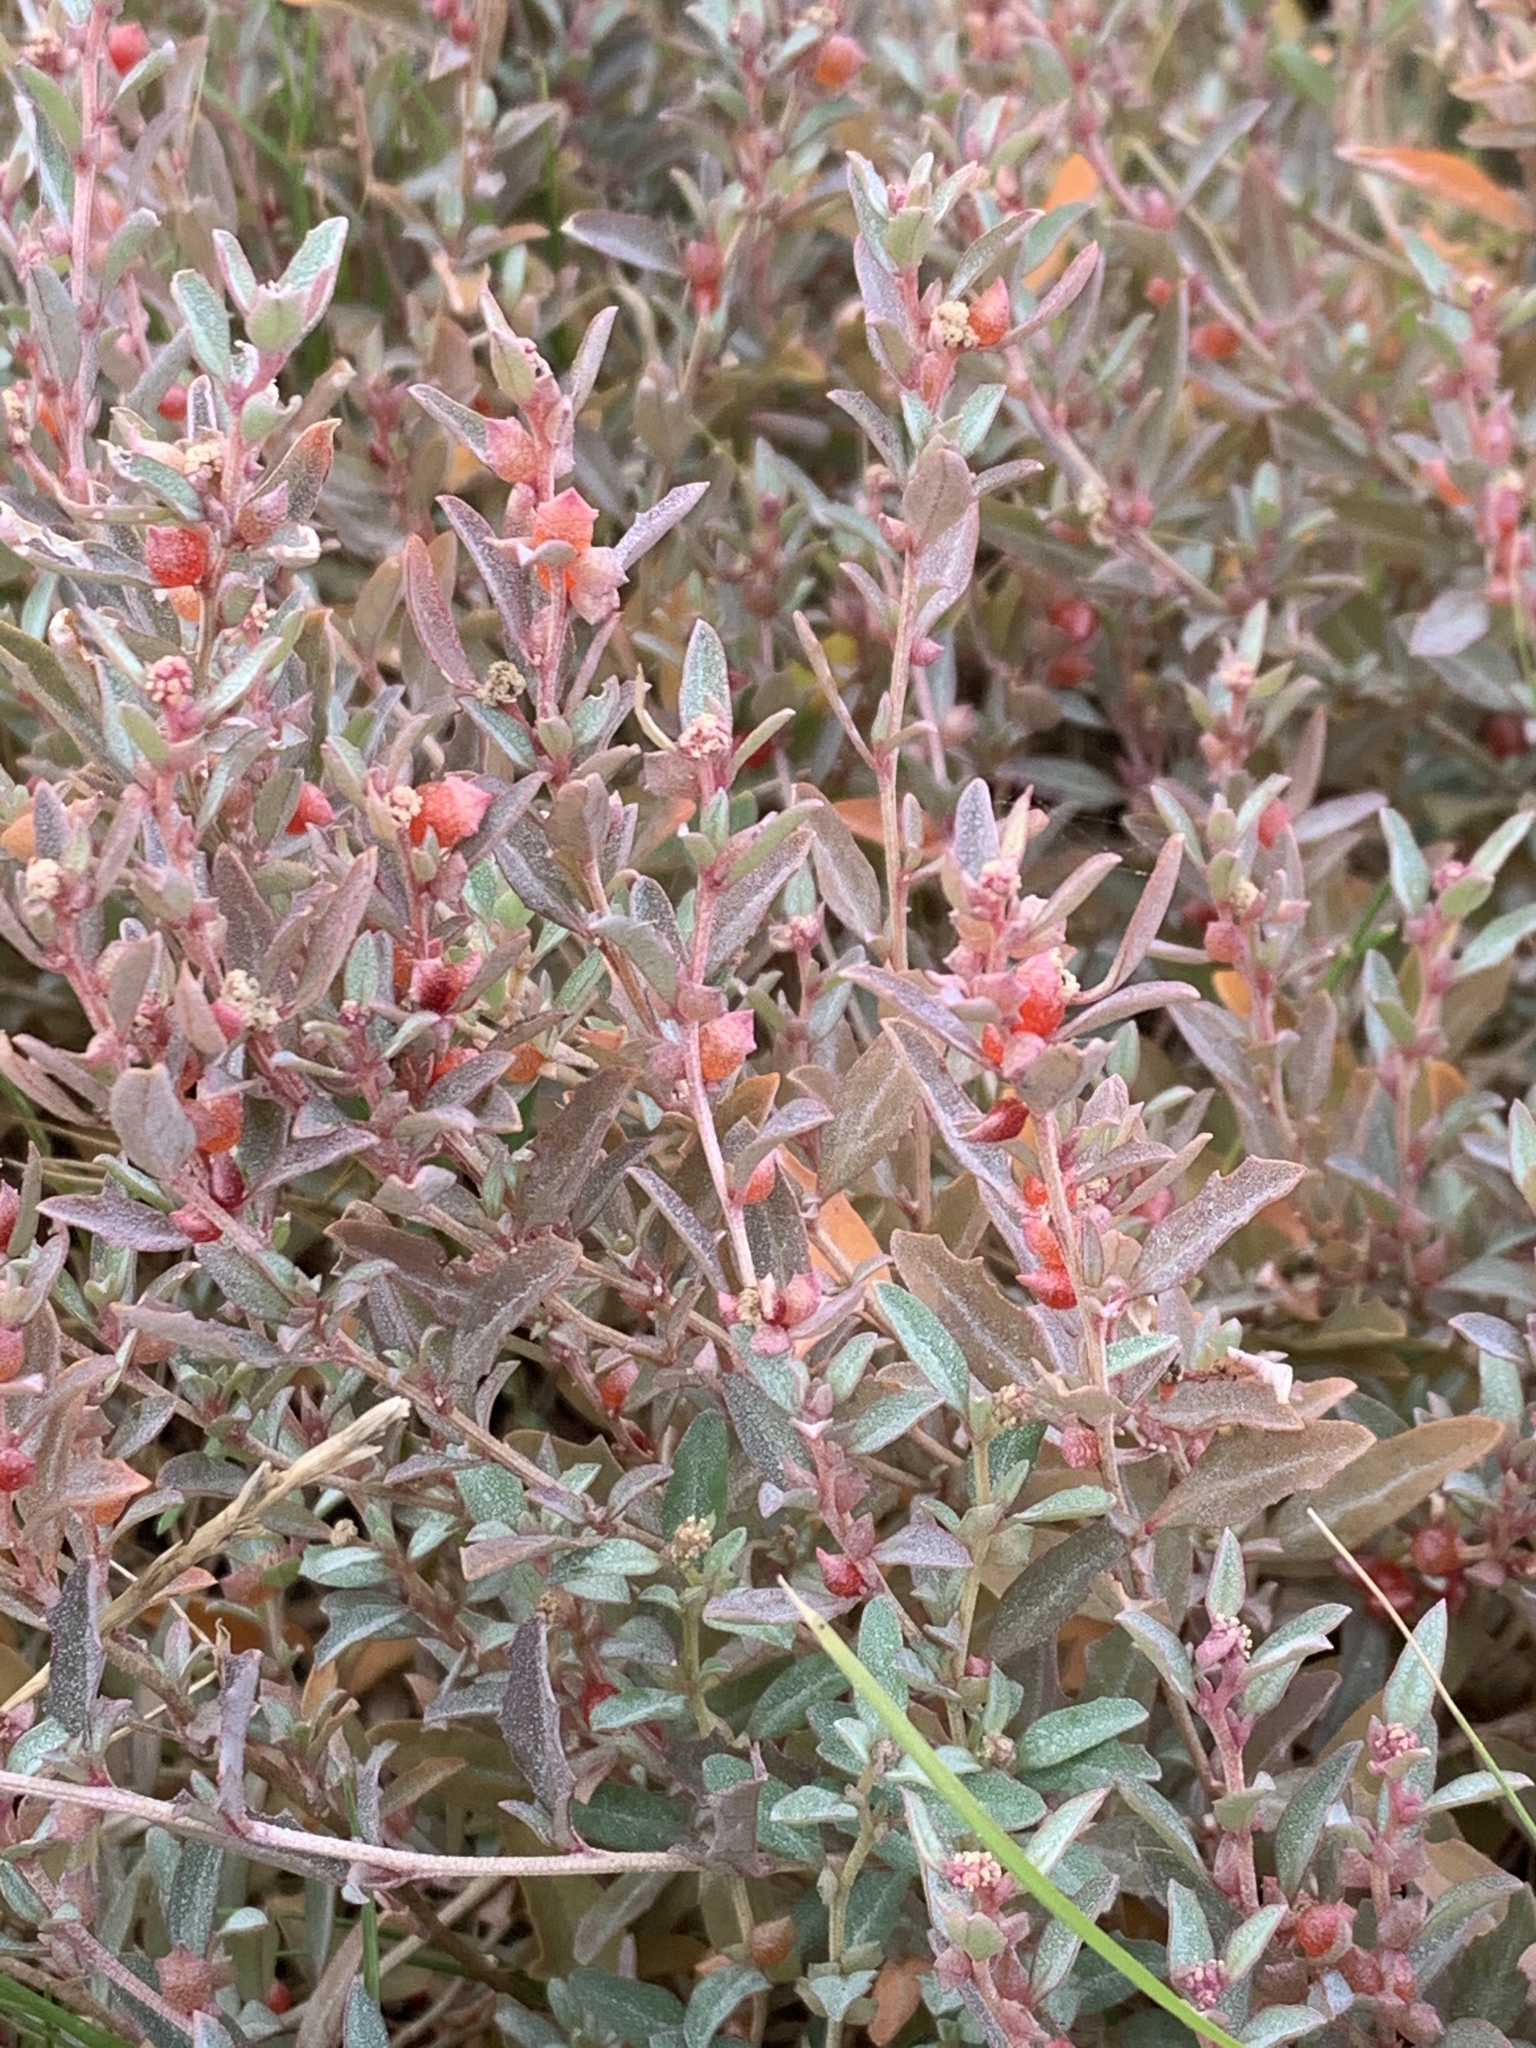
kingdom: Plantae
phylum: Tracheophyta
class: Magnoliopsida
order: Caryophyllales
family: Amaranthaceae
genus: Atriplex
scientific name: Atriplex semibaccata
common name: Australian saltbush
